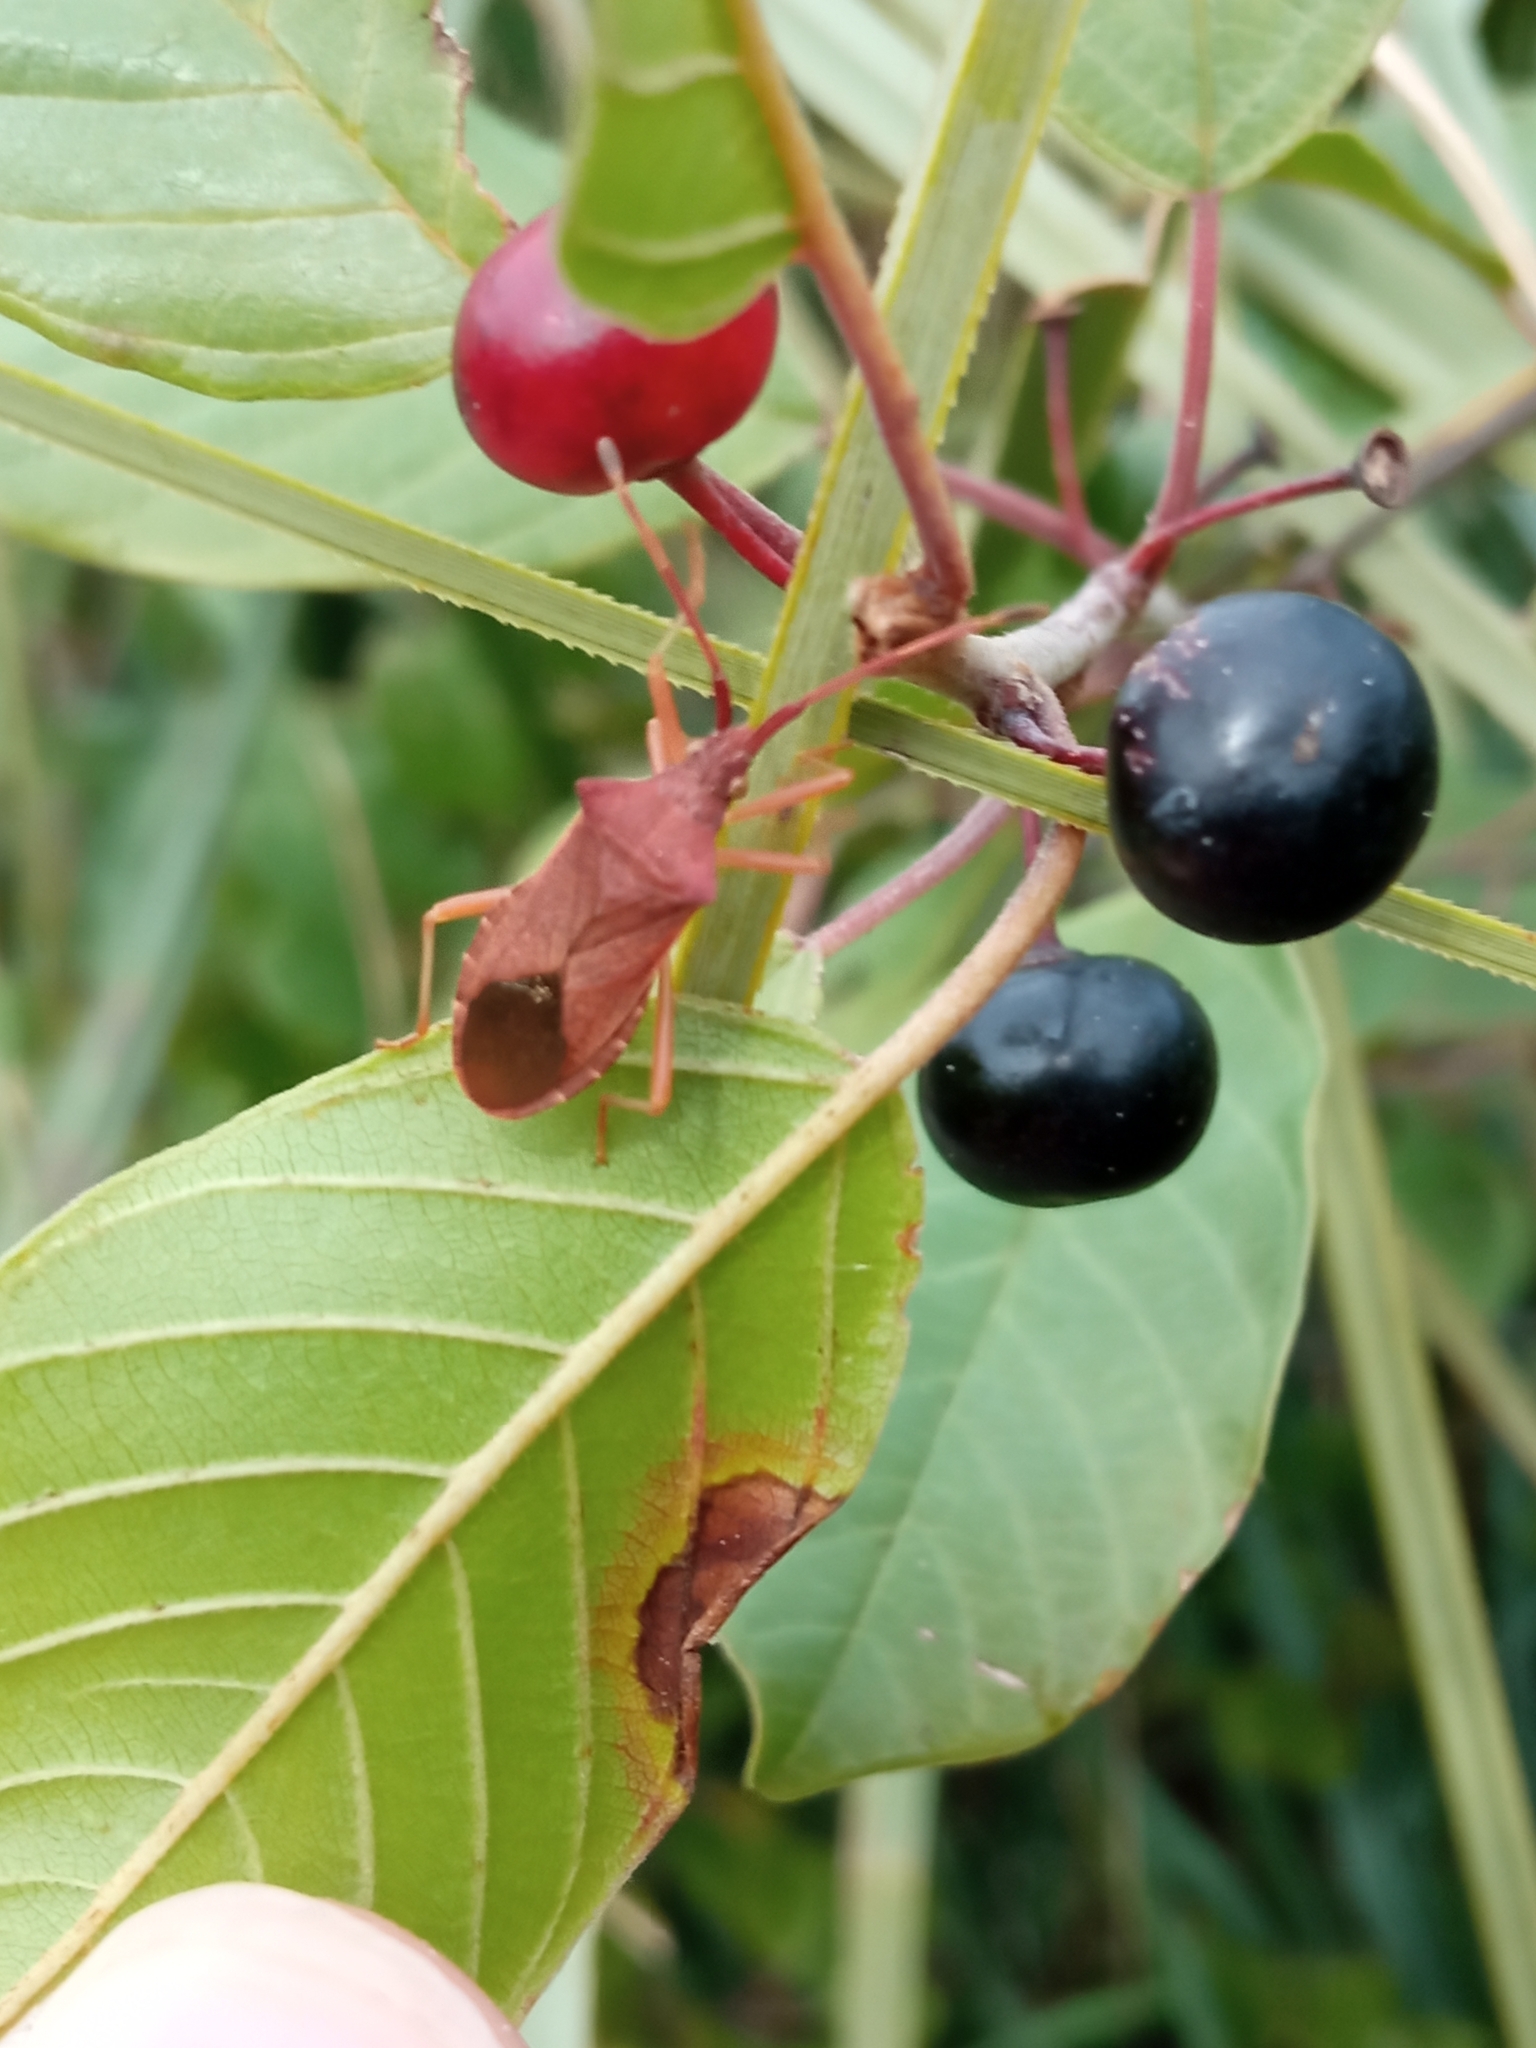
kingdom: Animalia
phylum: Arthropoda
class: Insecta
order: Hemiptera
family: Coreidae
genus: Gonocerus
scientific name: Gonocerus acuteangulatus
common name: Box bug
